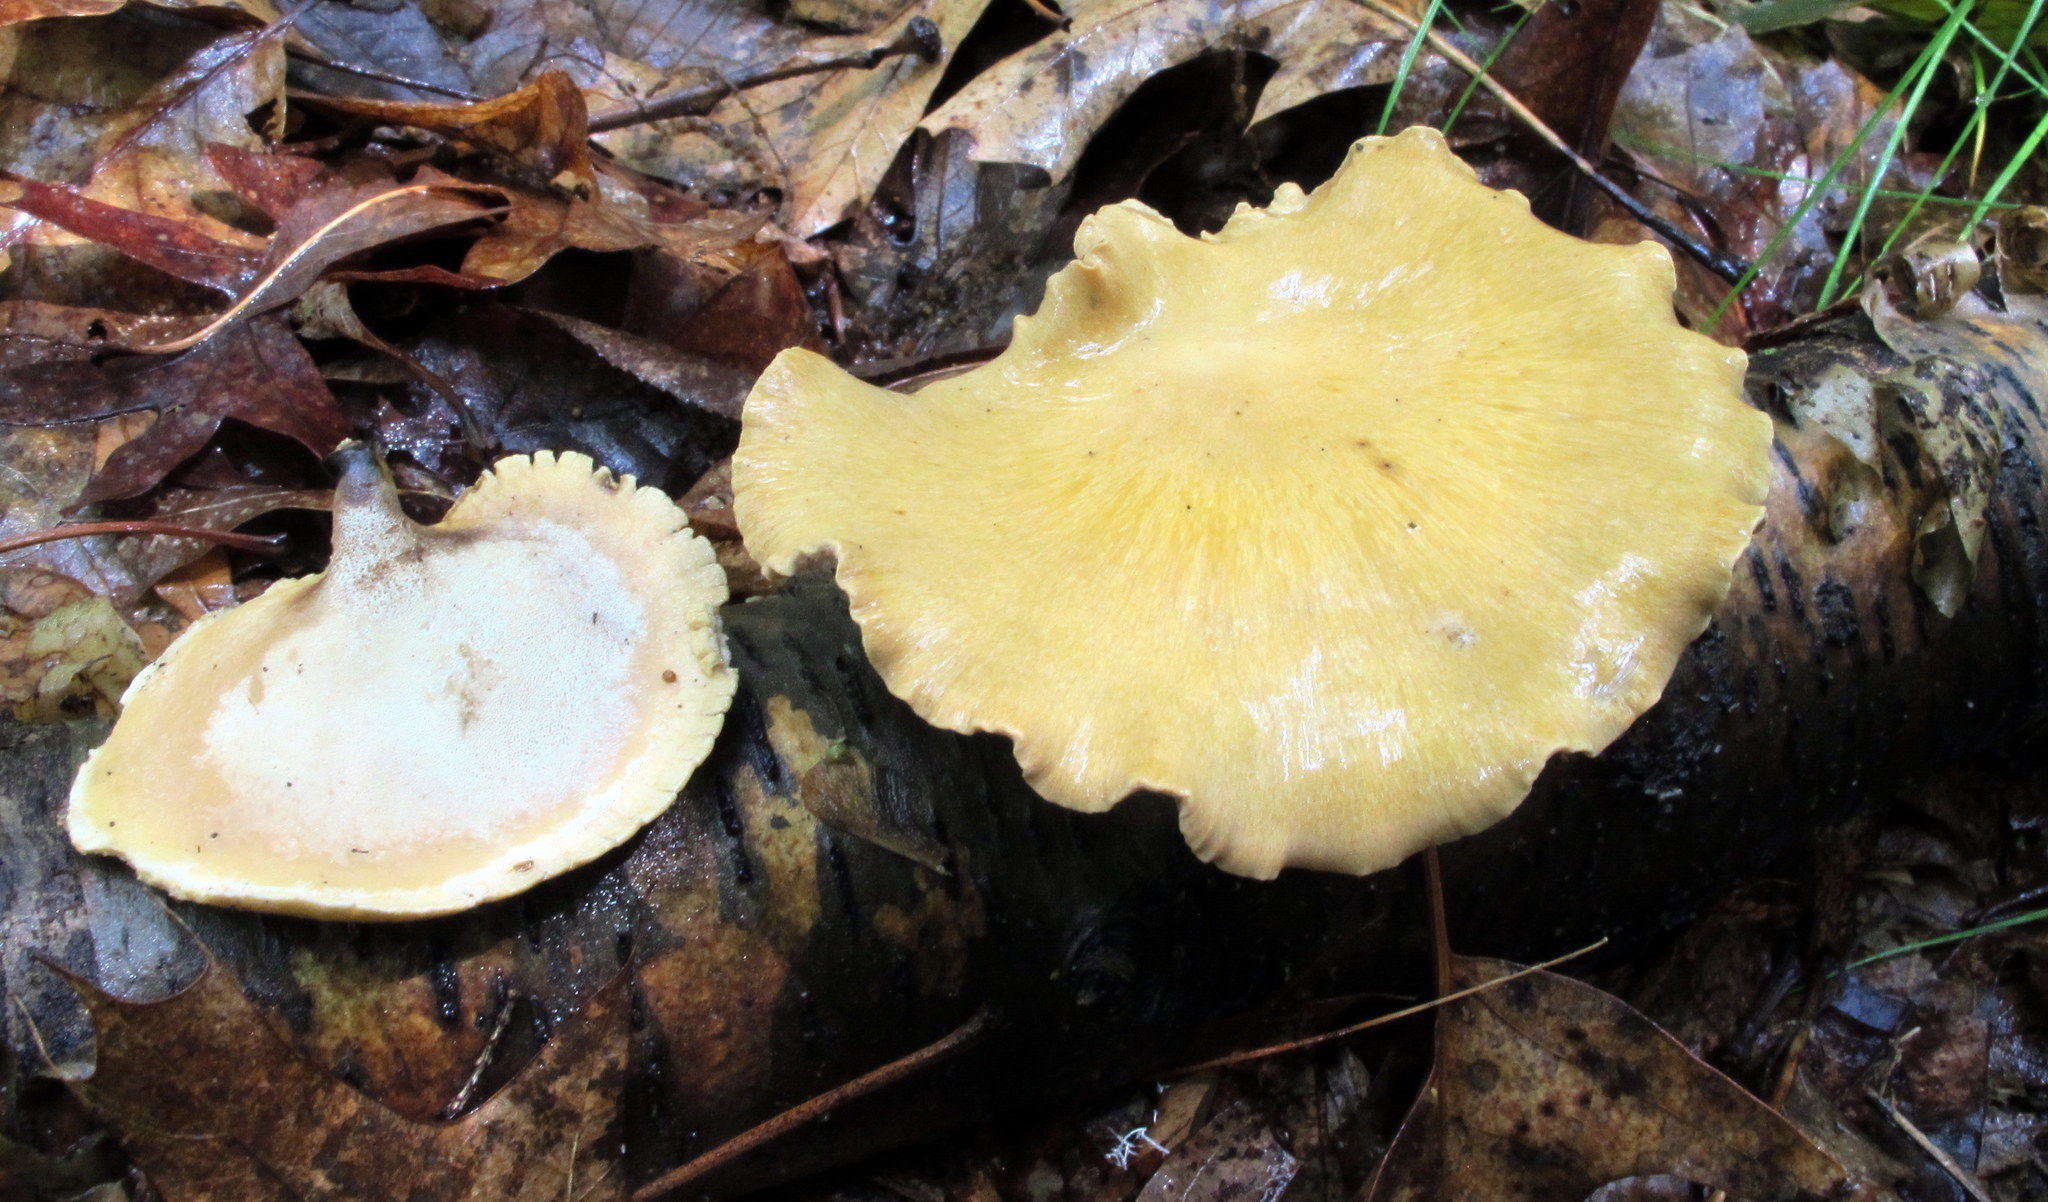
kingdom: Fungi
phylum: Basidiomycota
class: Agaricomycetes
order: Polyporales
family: Polyporaceae
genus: Cerioporus
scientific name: Cerioporus leptocephalus
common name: Blackfoot polypore
